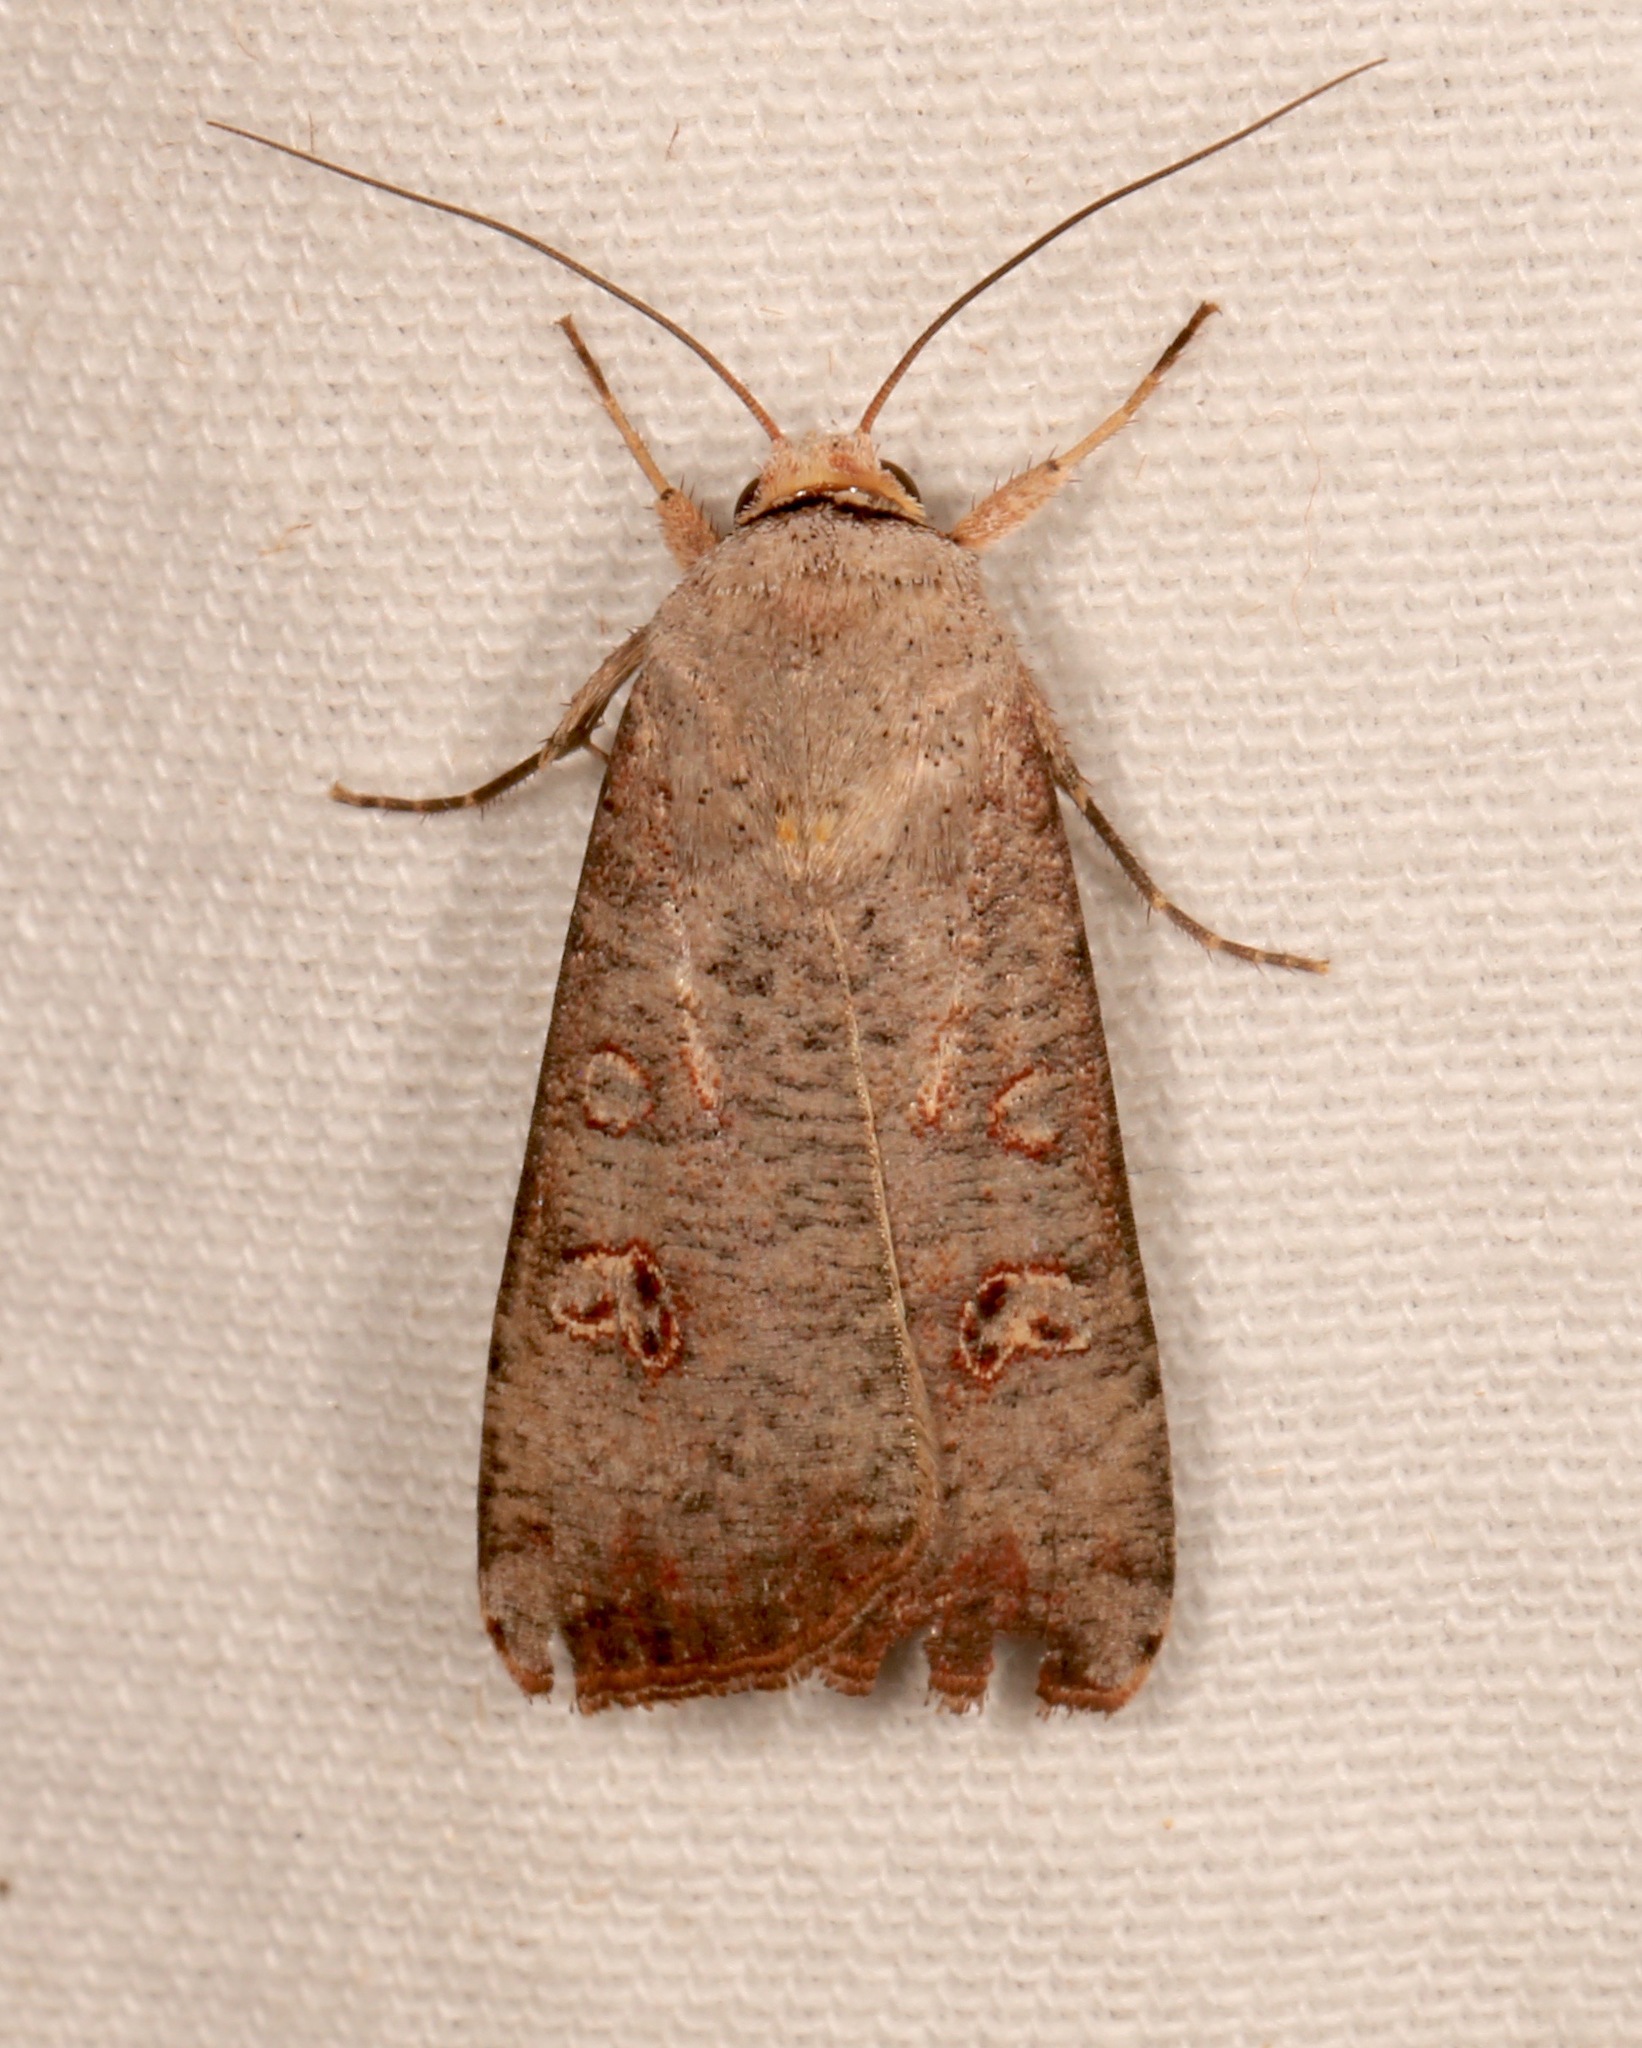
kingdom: Animalia
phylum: Arthropoda
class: Insecta
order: Lepidoptera
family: Noctuidae
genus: Anicla
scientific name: Anicla infecta
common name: Green cutworm
